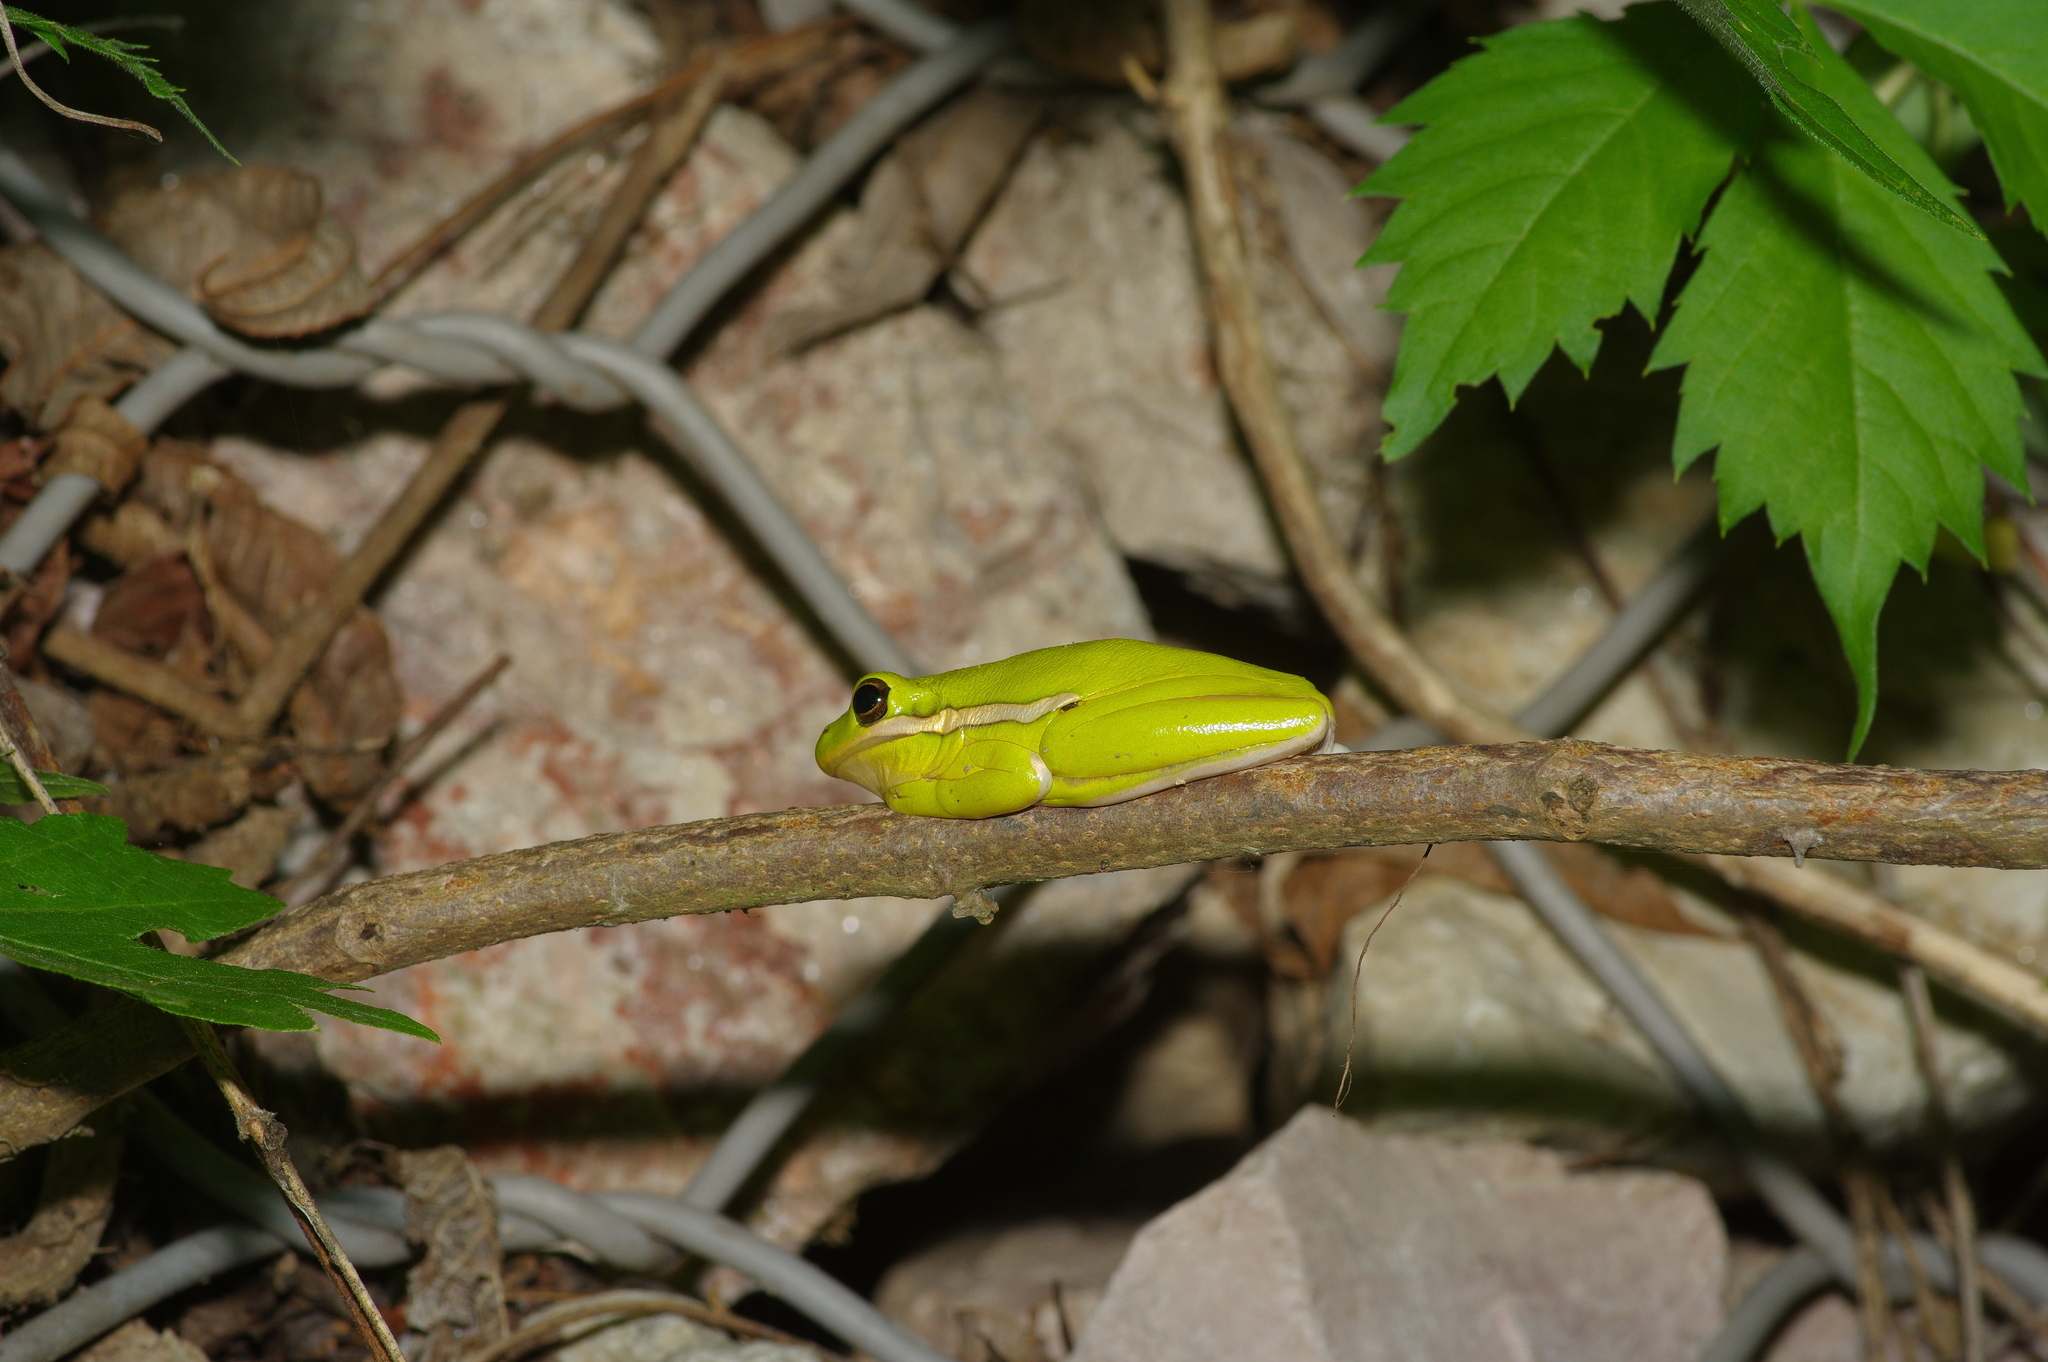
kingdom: Animalia
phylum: Chordata
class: Amphibia
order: Anura
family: Hylidae
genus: Dryophytes
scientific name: Dryophytes cinereus
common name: Green treefrog
